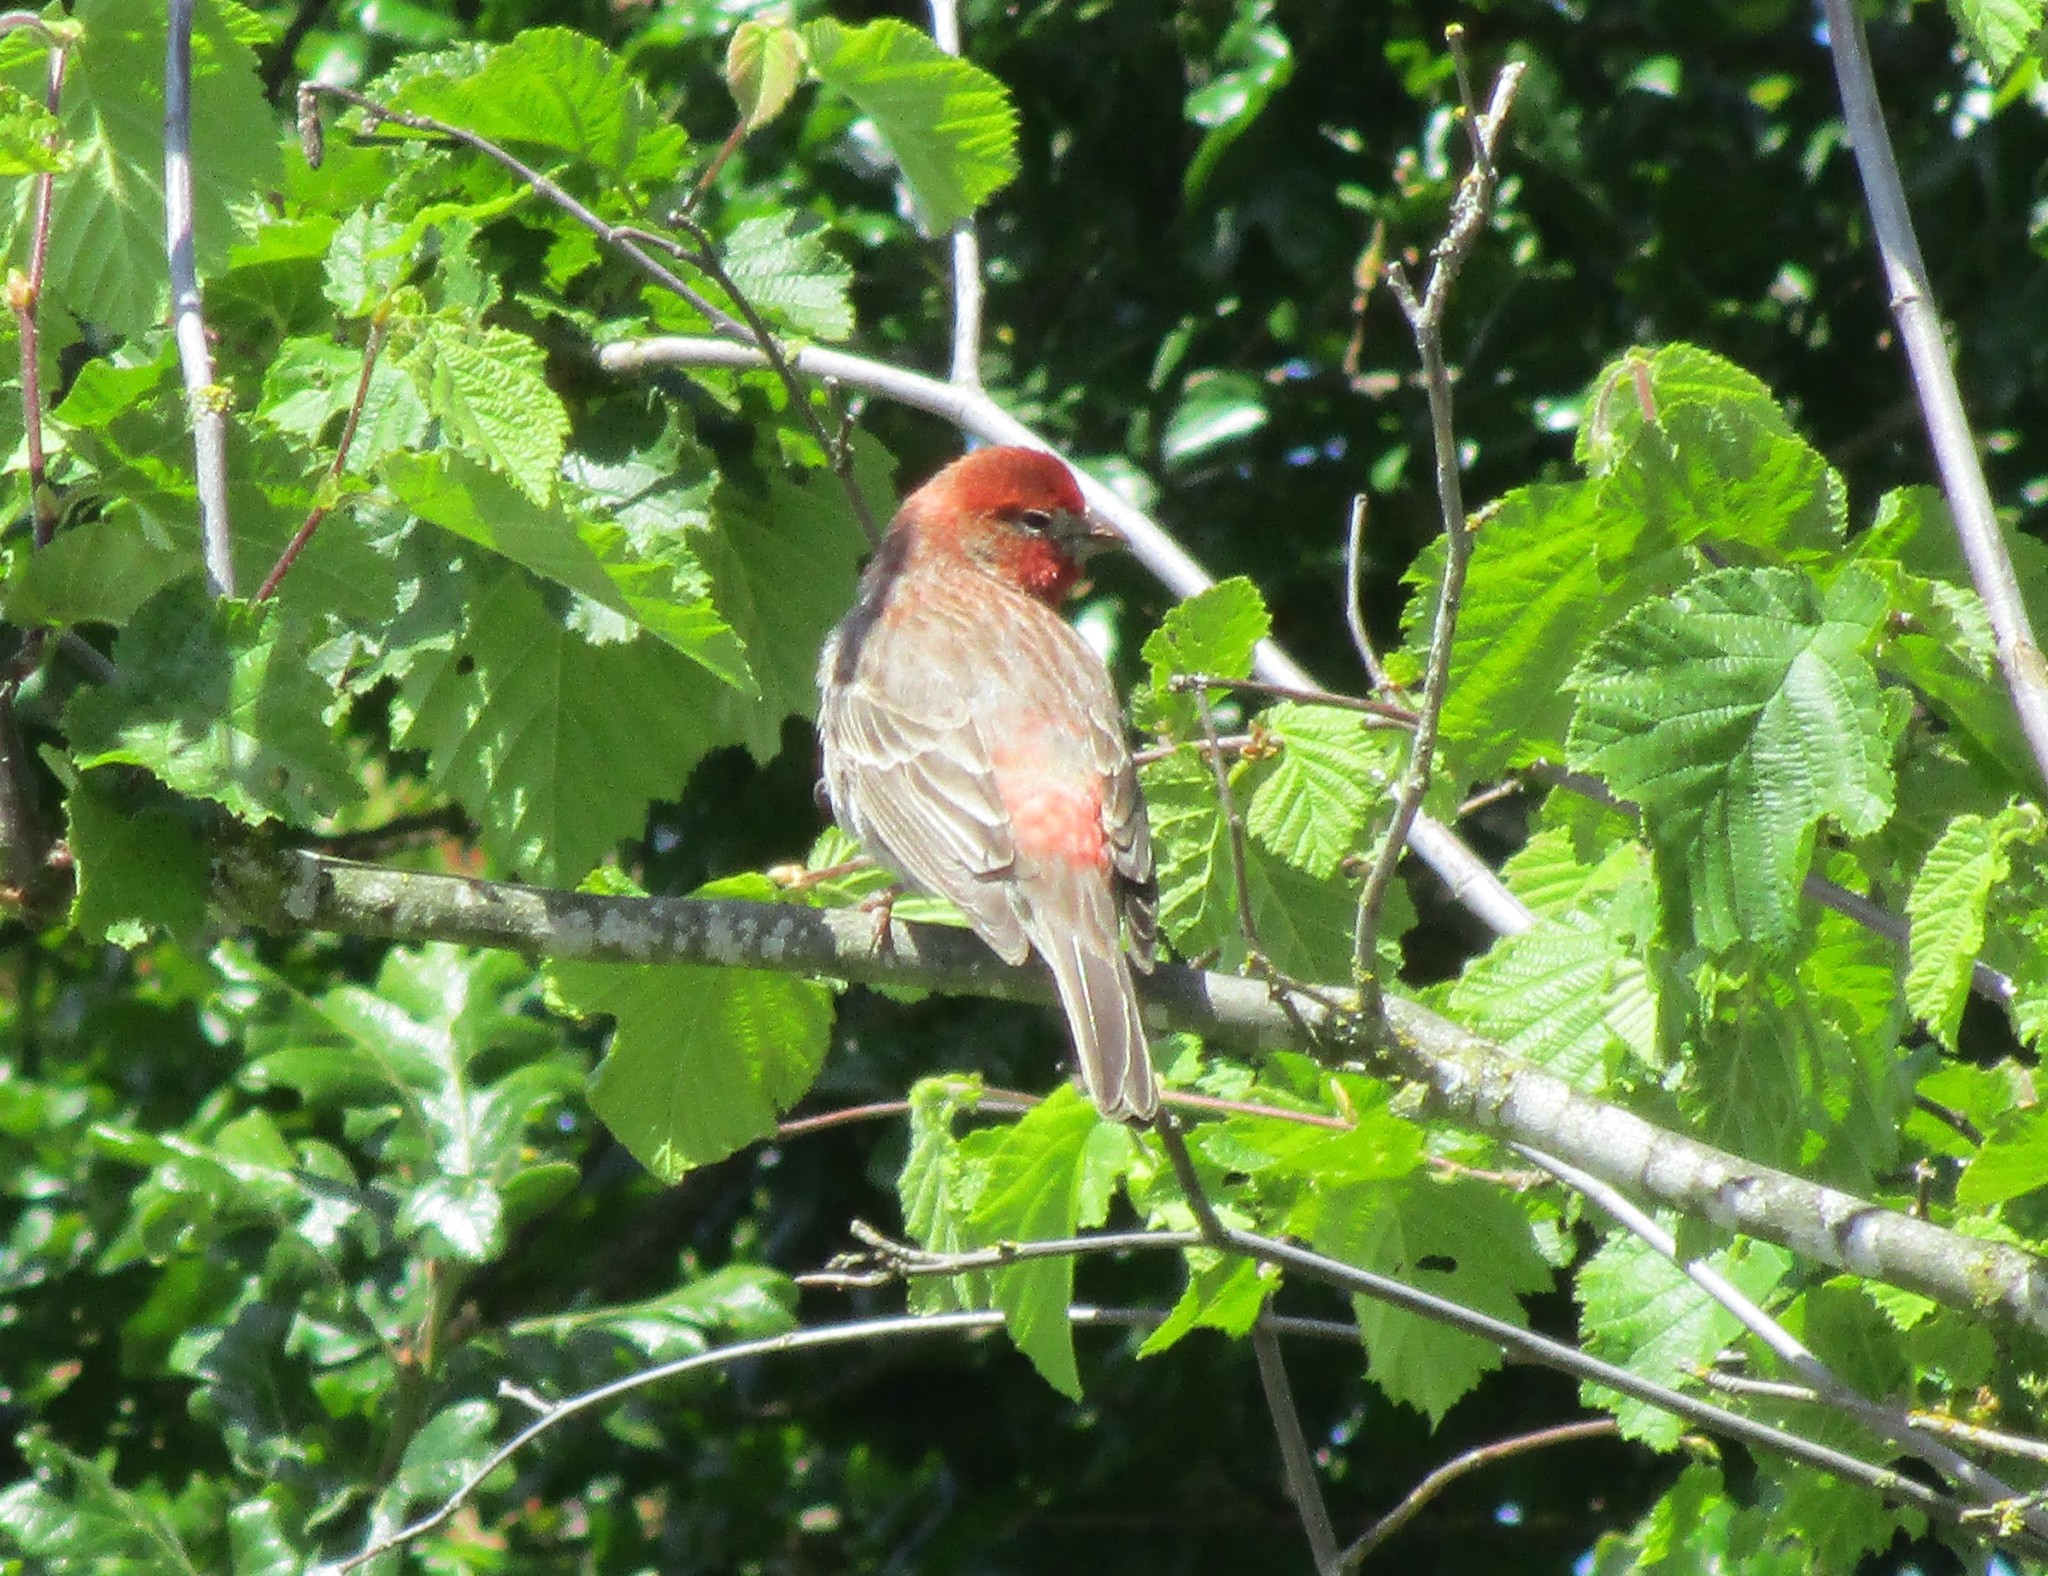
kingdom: Animalia
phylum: Chordata
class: Aves
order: Passeriformes
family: Fringillidae
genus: Haemorhous
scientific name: Haemorhous mexicanus
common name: House finch
